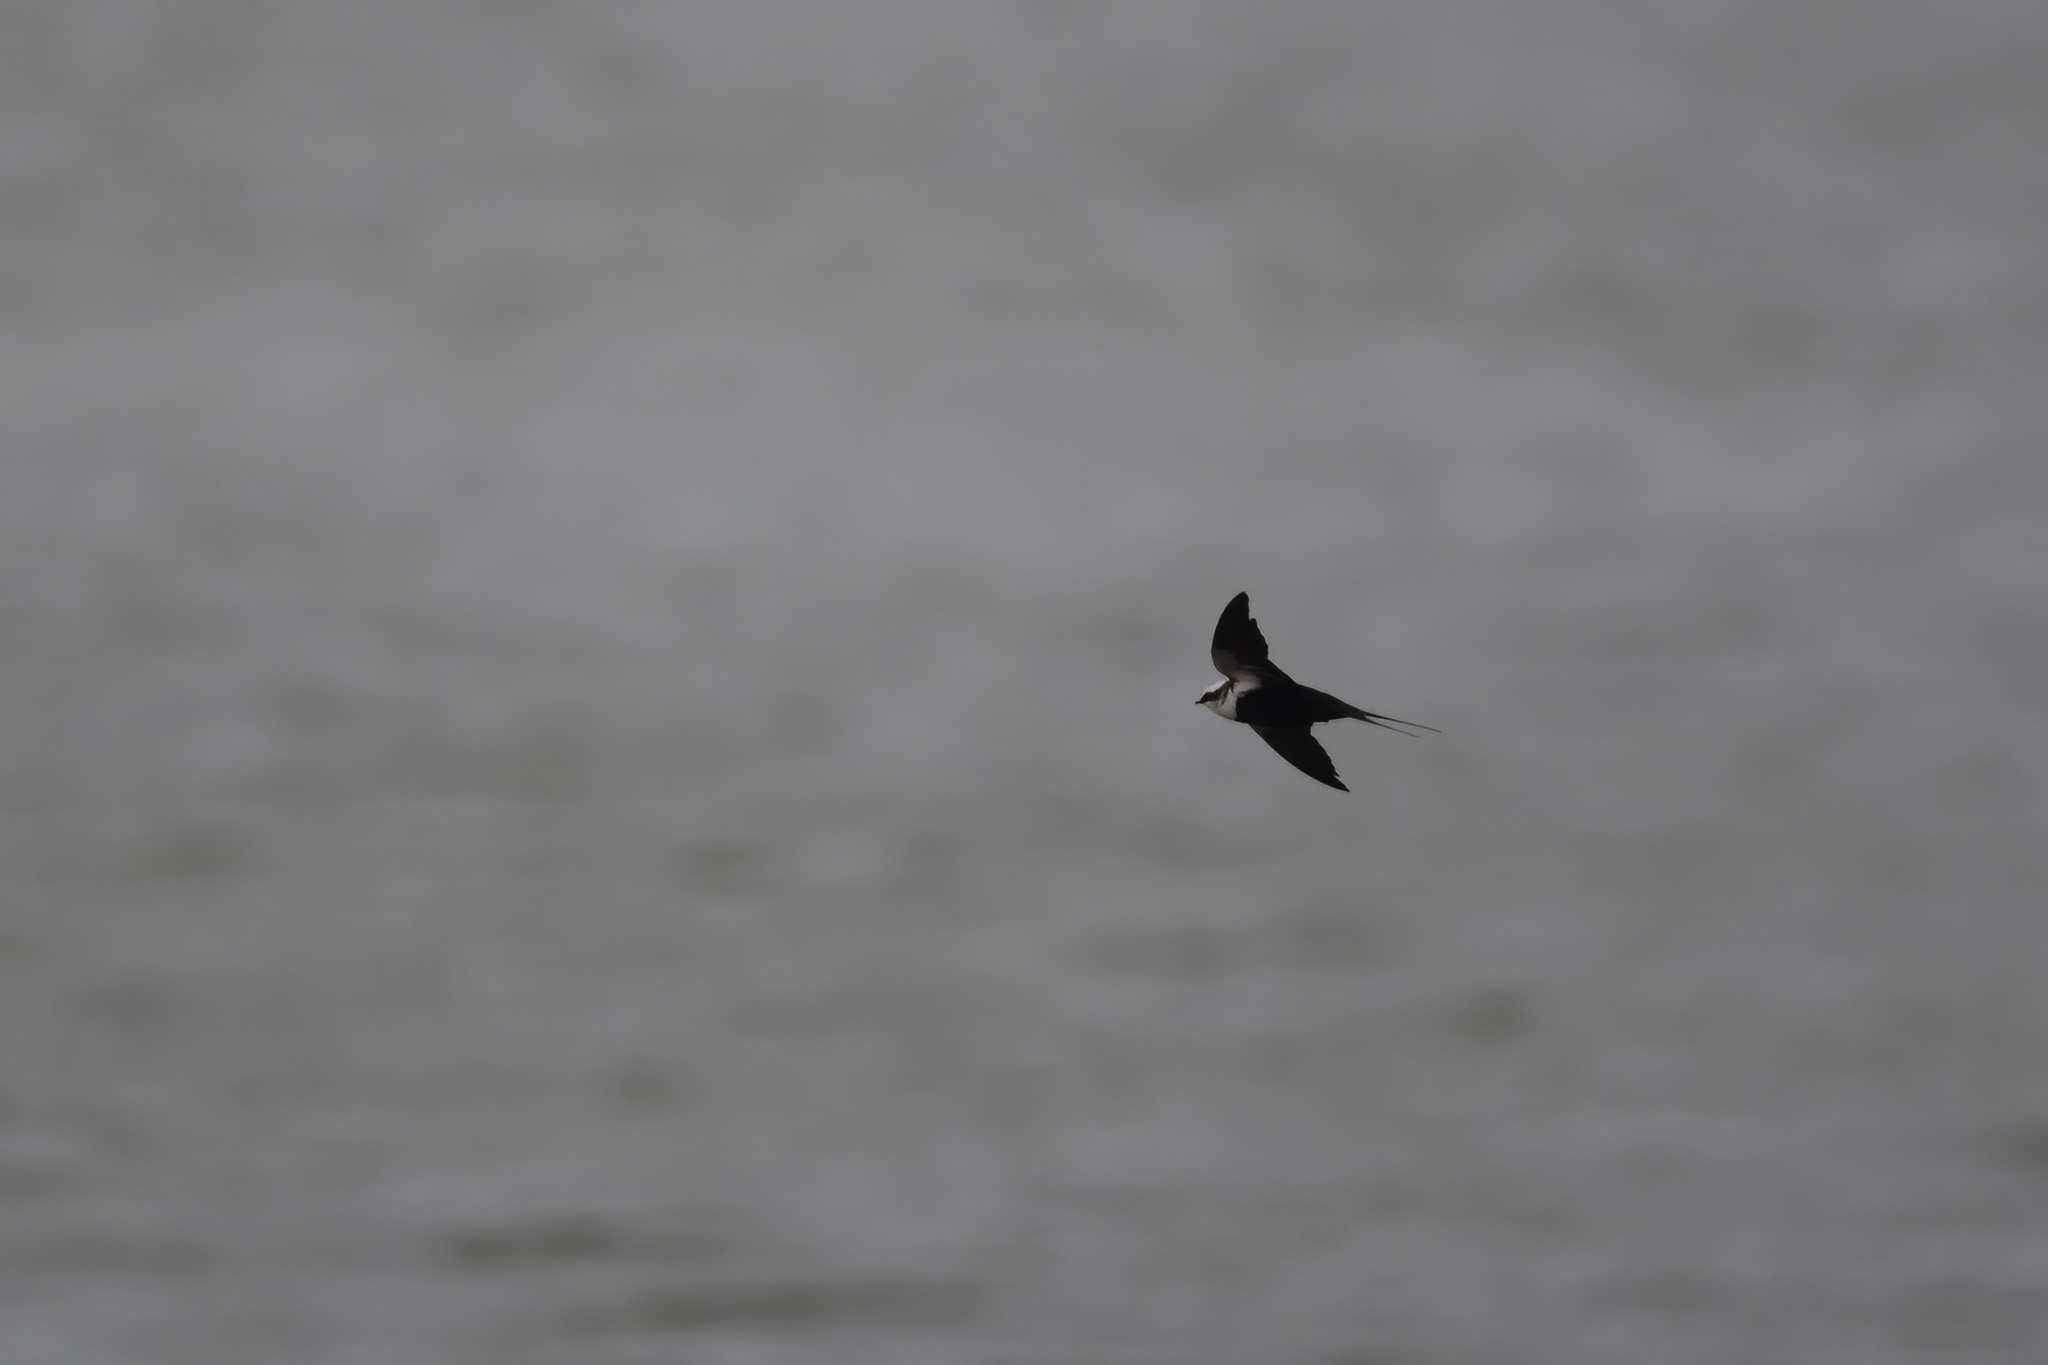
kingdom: Animalia
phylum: Chordata
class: Aves
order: Passeriformes
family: Hirundinidae
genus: Cheramoeca
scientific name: Cheramoeca leucosterna
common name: White-backed swallow
